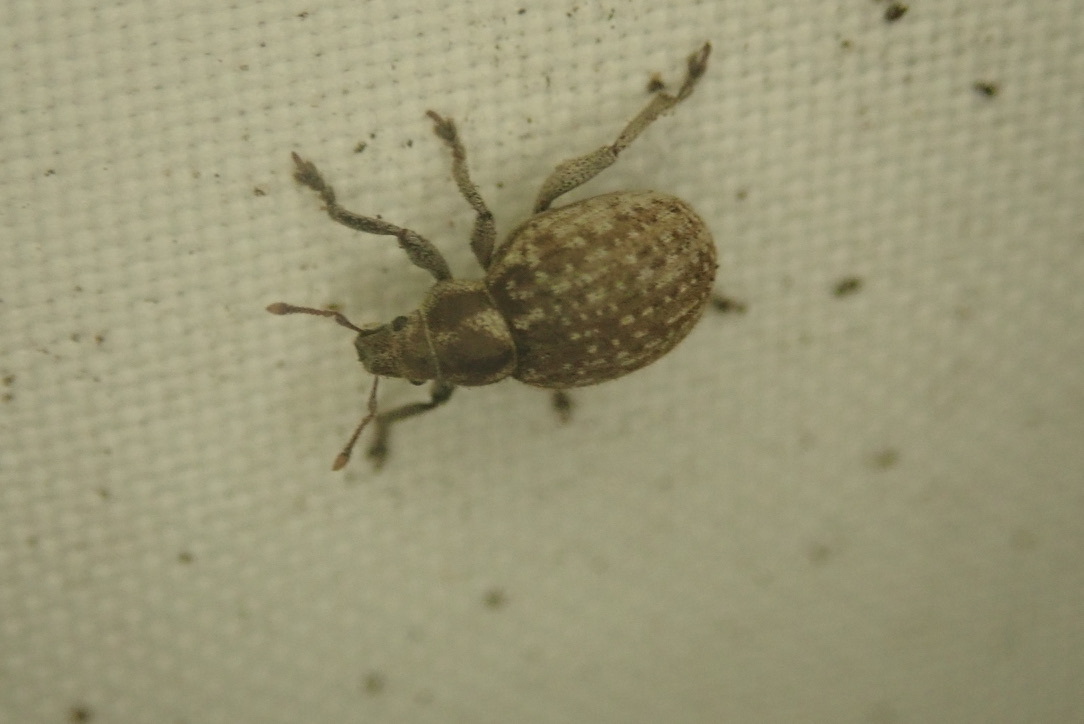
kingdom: Animalia
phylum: Arthropoda
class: Insecta
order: Coleoptera
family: Curculionidae
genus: Philopedon
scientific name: Philopedon plagiatum
